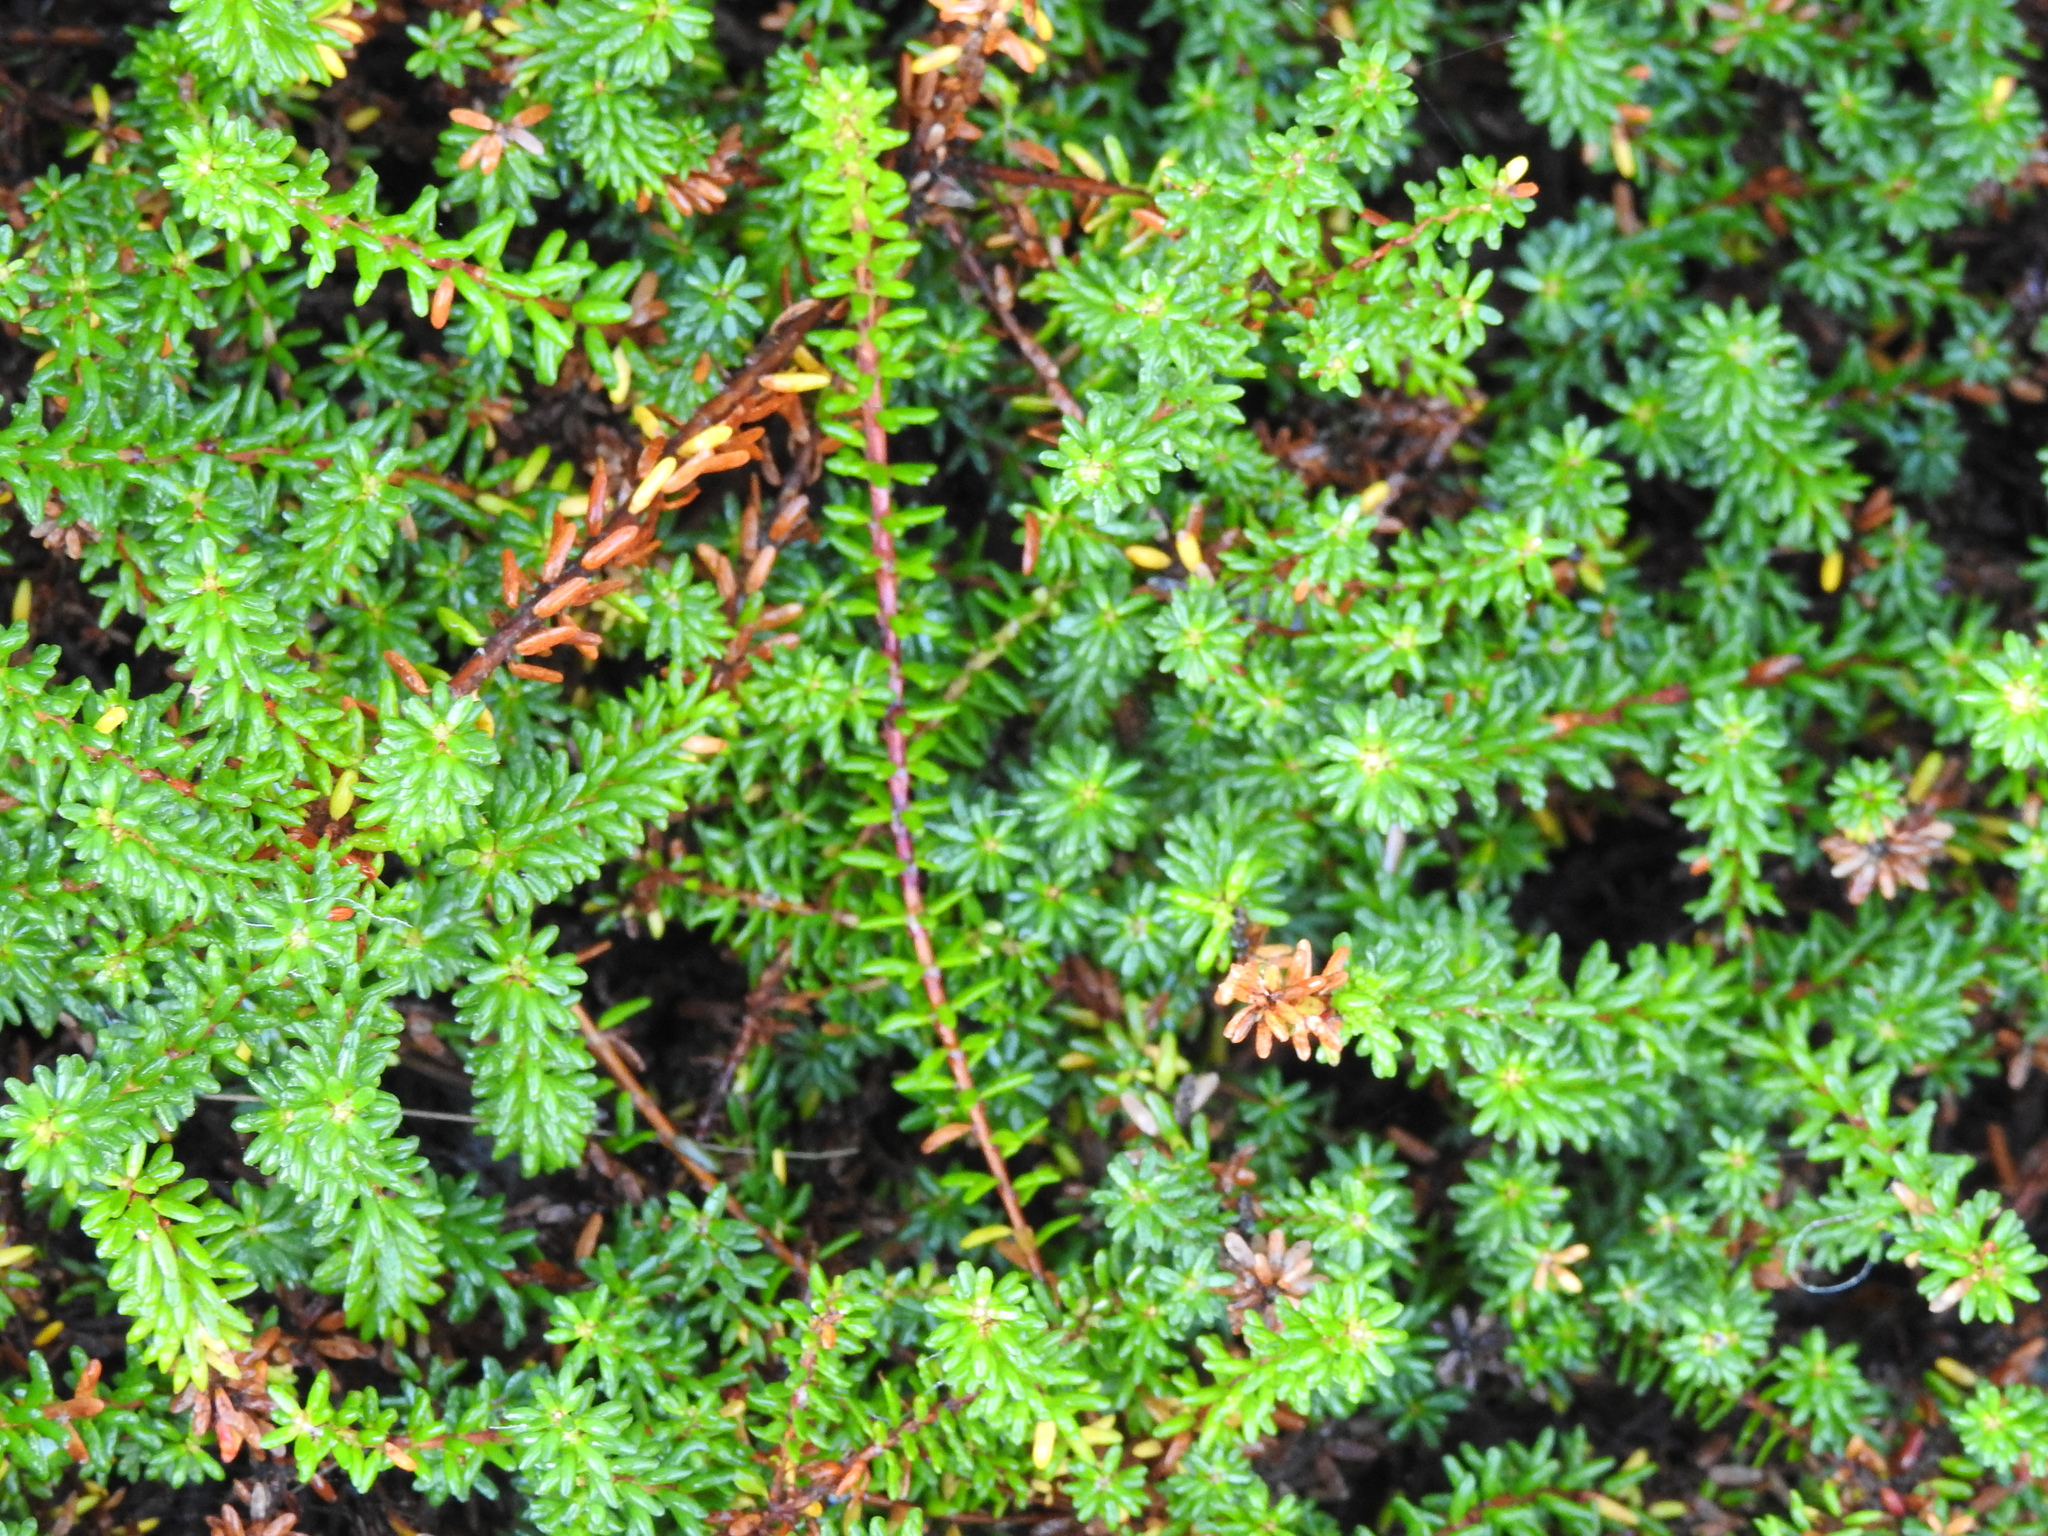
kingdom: Plantae
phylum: Tracheophyta
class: Magnoliopsida
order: Ericales
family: Ericaceae
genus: Empetrum
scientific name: Empetrum nigrum
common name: Black crowberry
